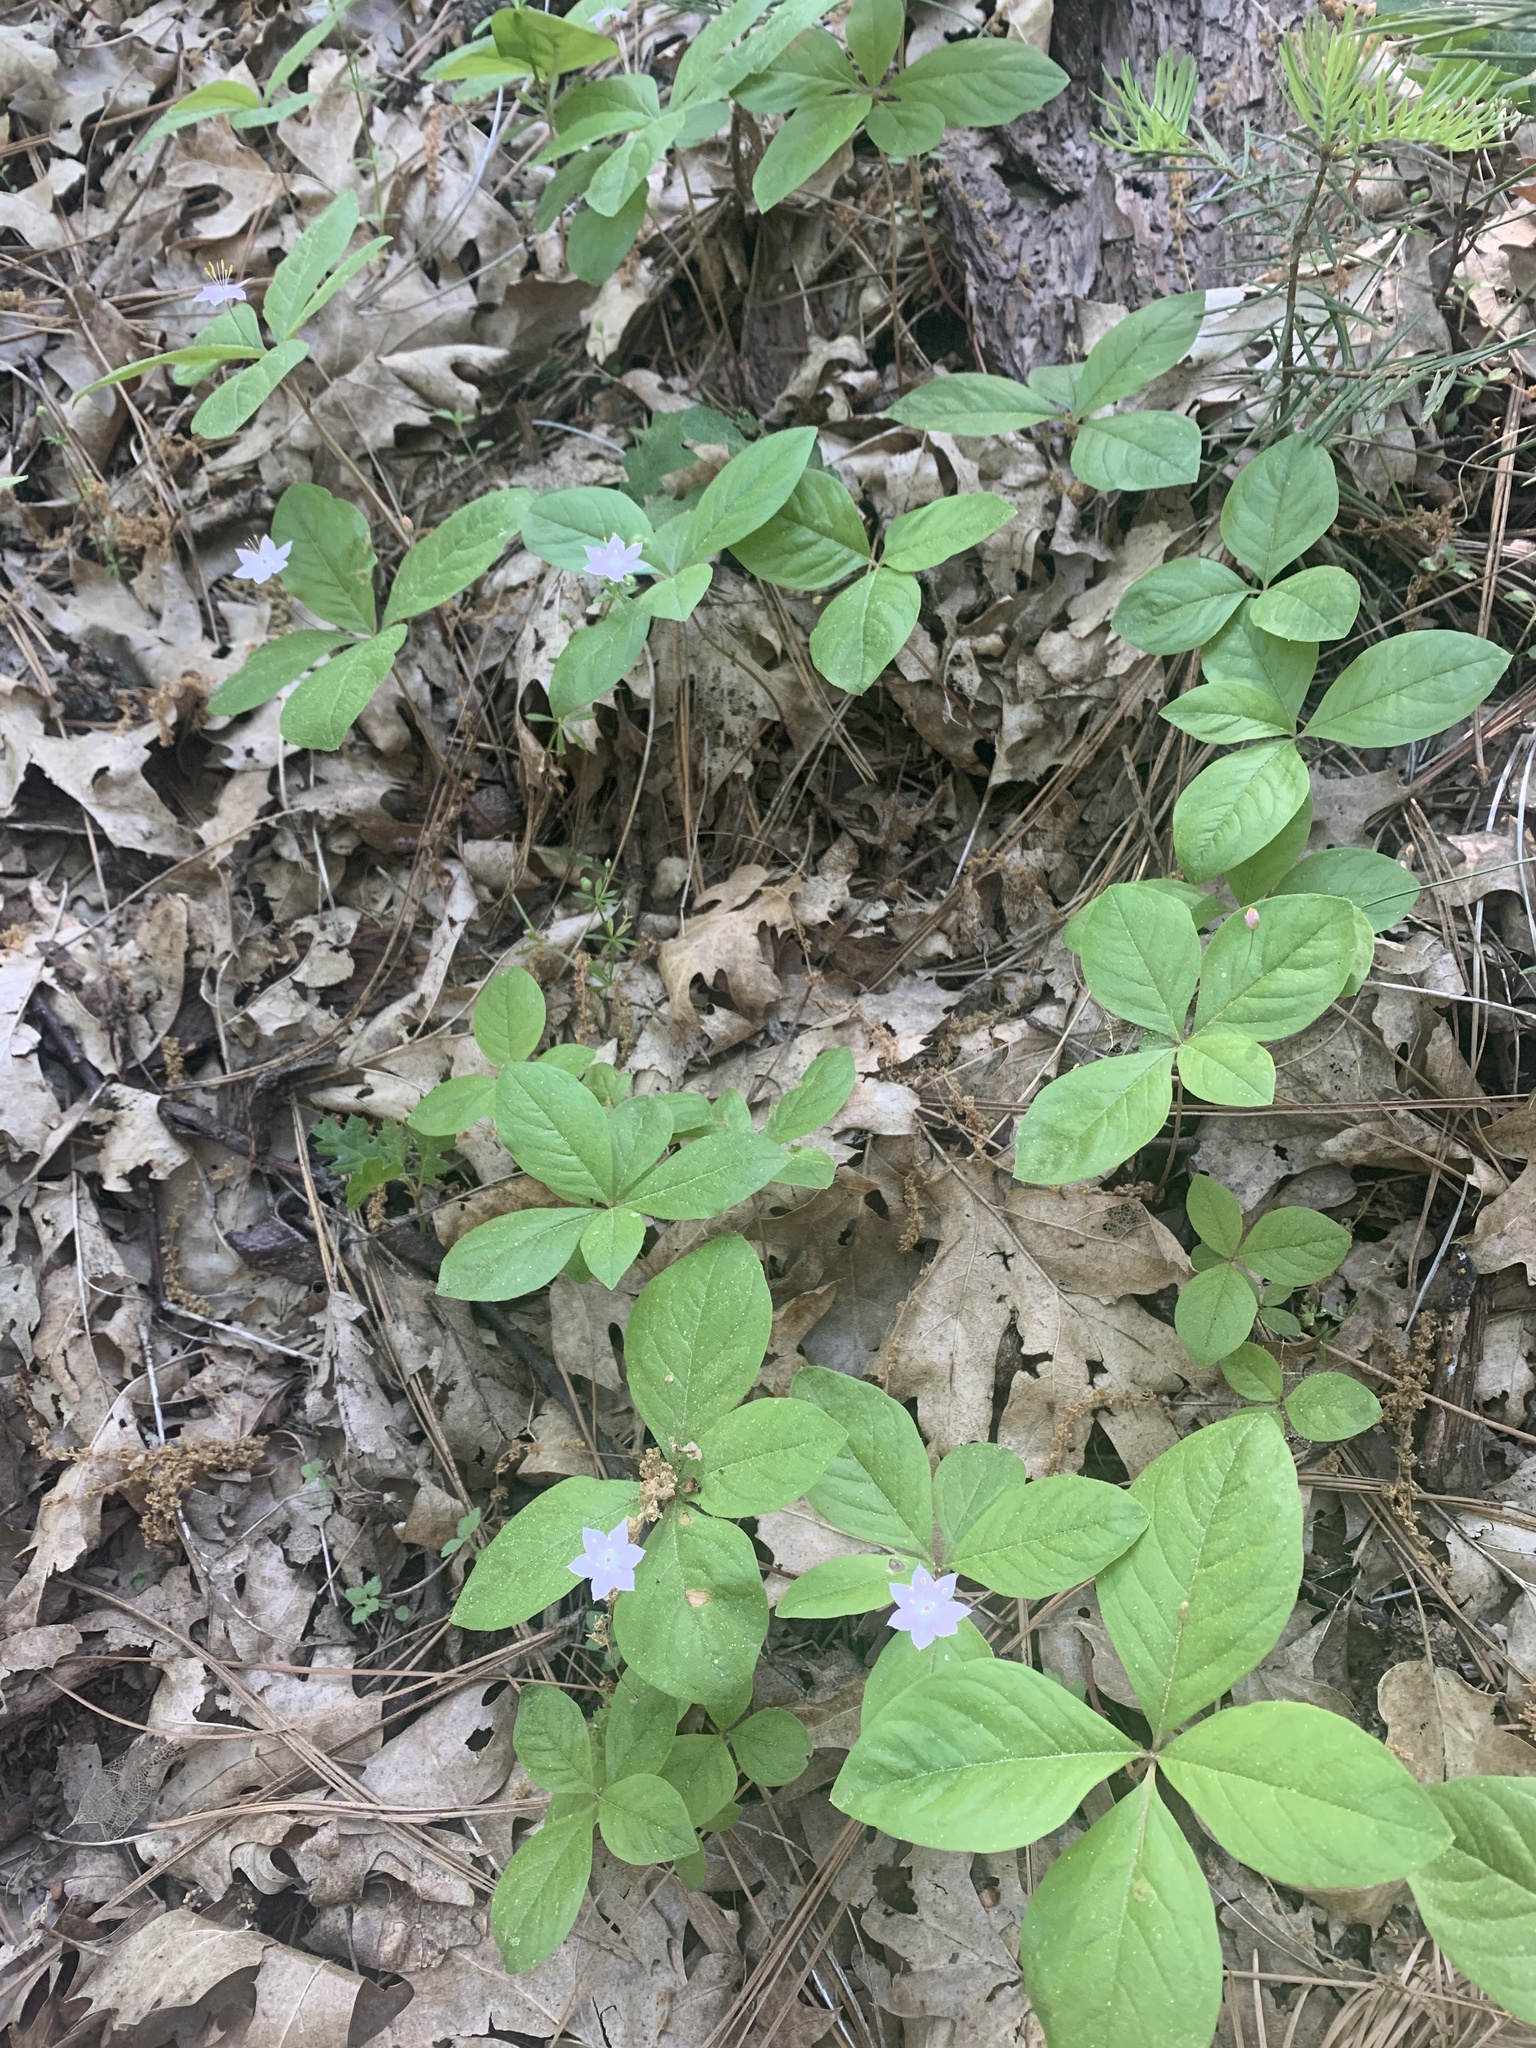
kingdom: Plantae
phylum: Tracheophyta
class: Magnoliopsida
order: Ericales
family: Primulaceae
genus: Lysimachia
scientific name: Lysimachia latifolia
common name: Pacific starflower
